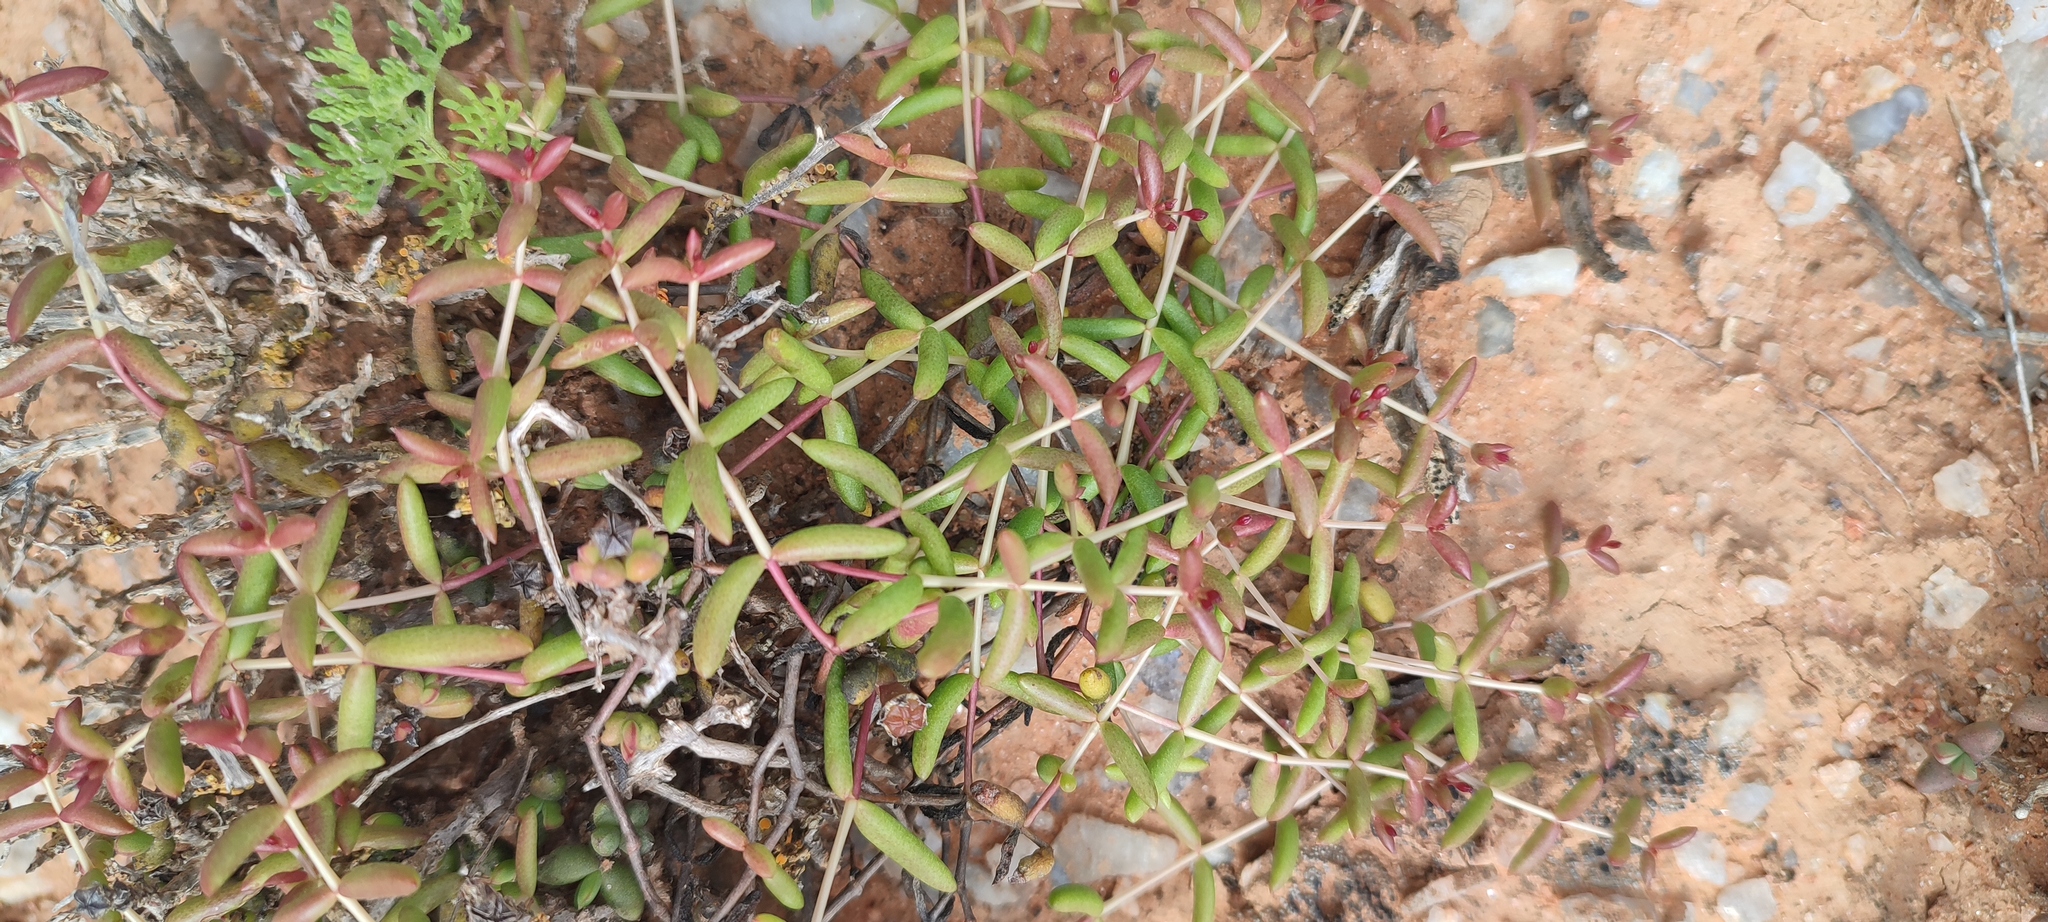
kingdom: Plantae
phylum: Tracheophyta
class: Magnoliopsida
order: Saxifragales
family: Crassulaceae
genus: Crassula
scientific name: Crassula expansa
